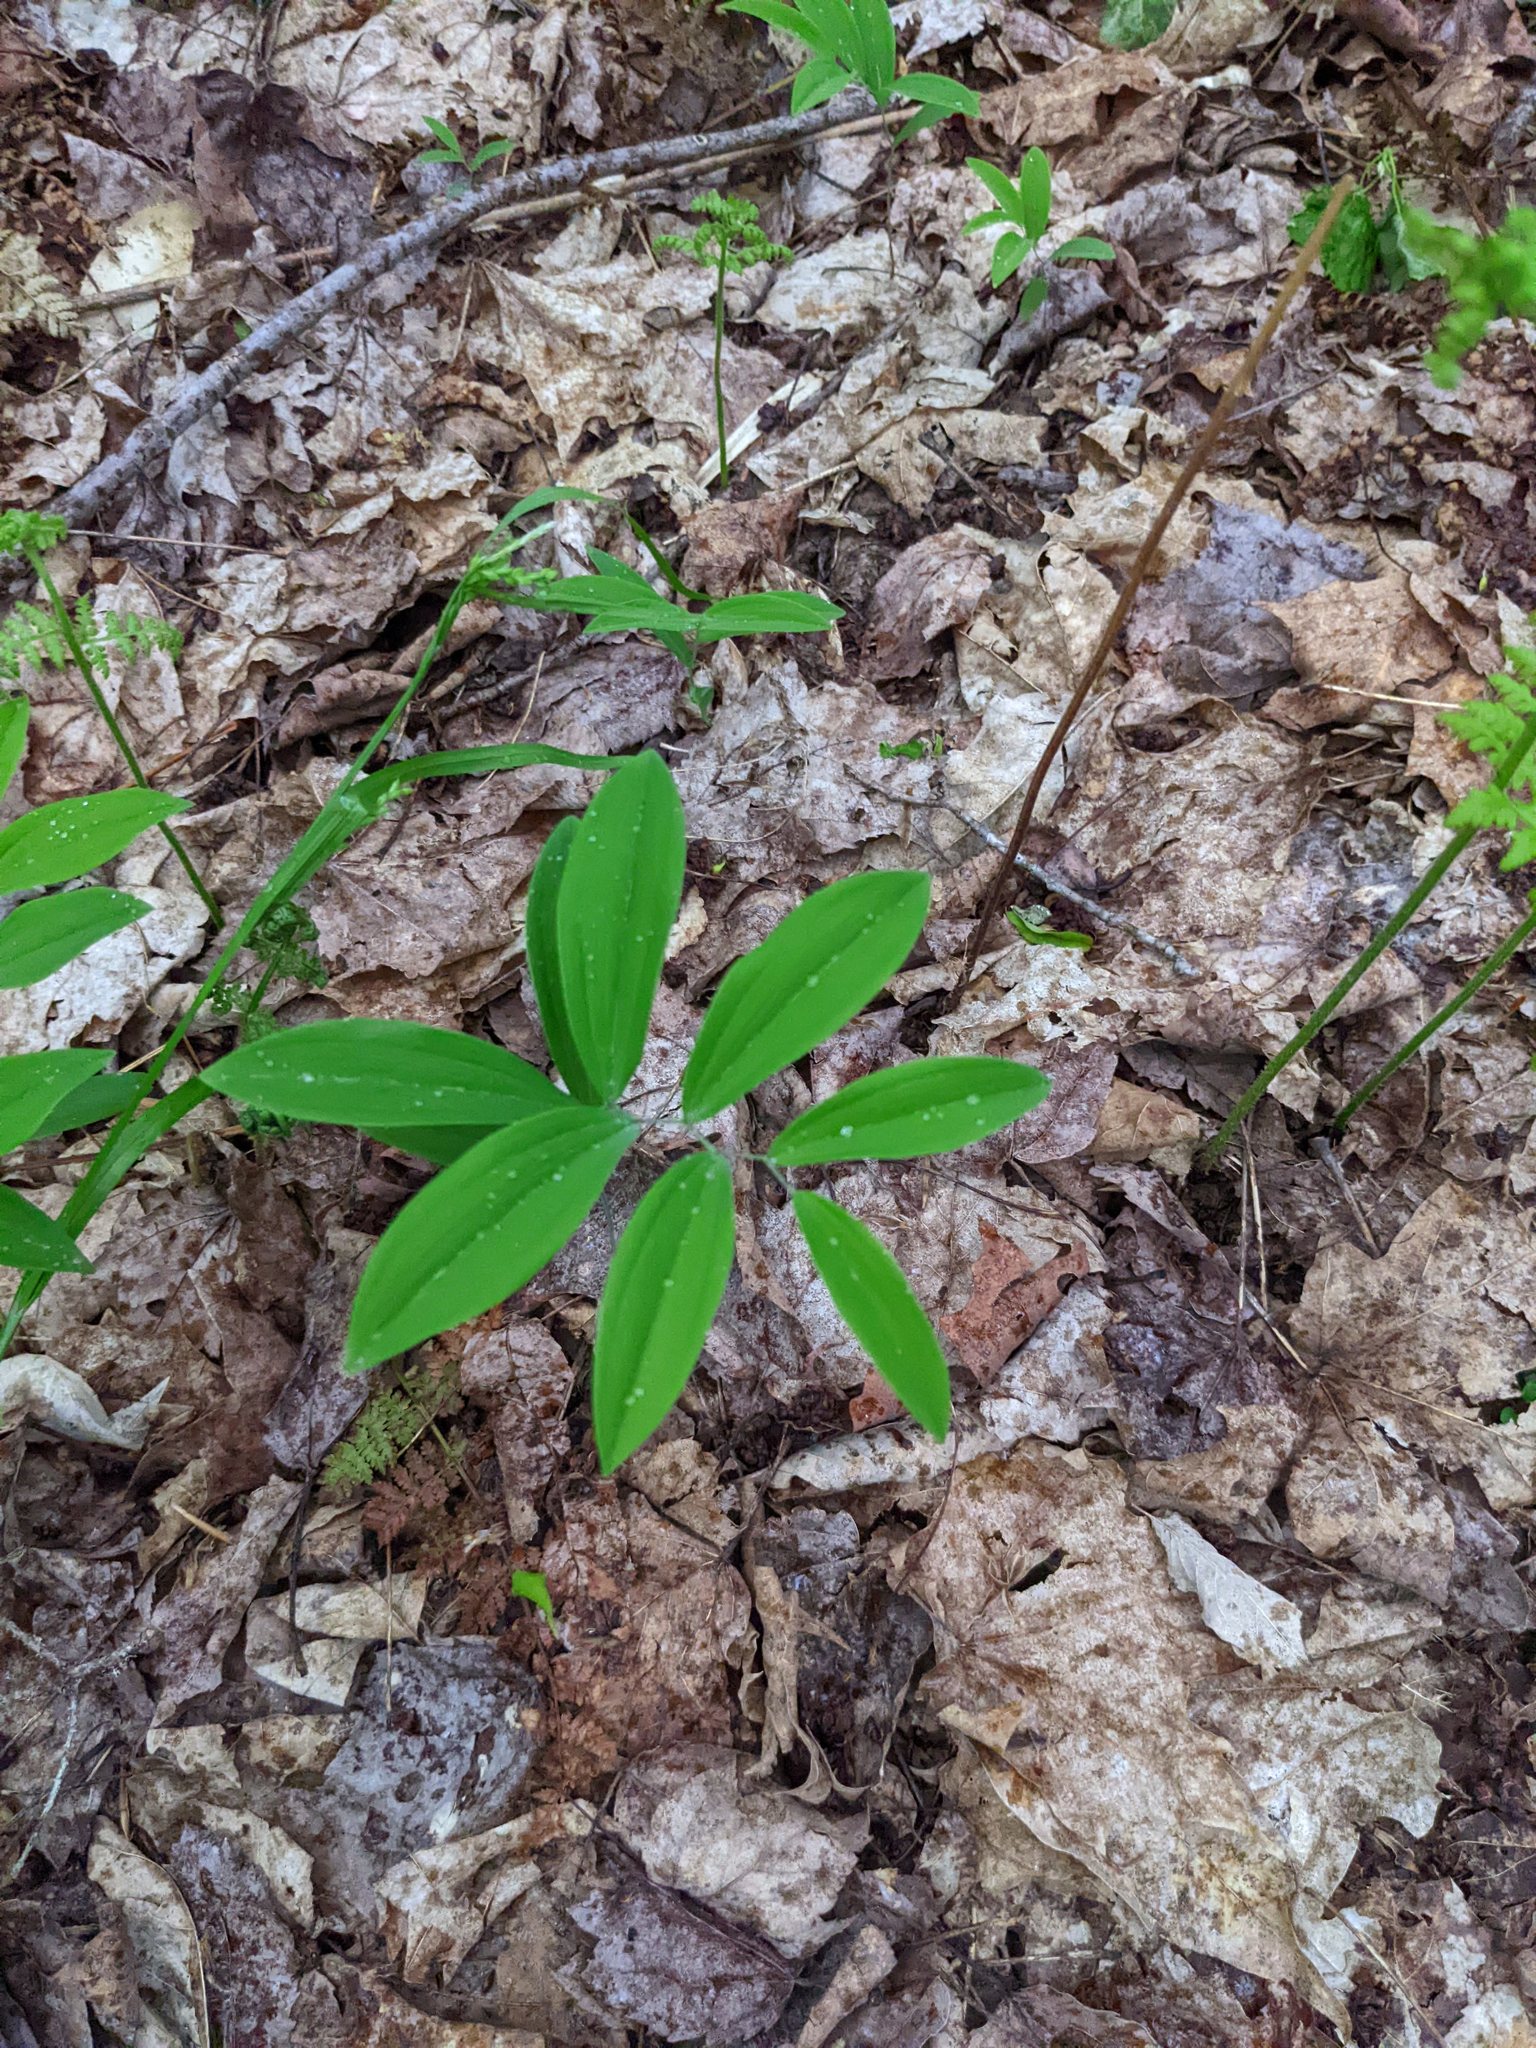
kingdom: Plantae
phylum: Tracheophyta
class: Liliopsida
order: Liliales
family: Colchicaceae
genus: Uvularia
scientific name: Uvularia sessilifolia
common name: Straw-lily
